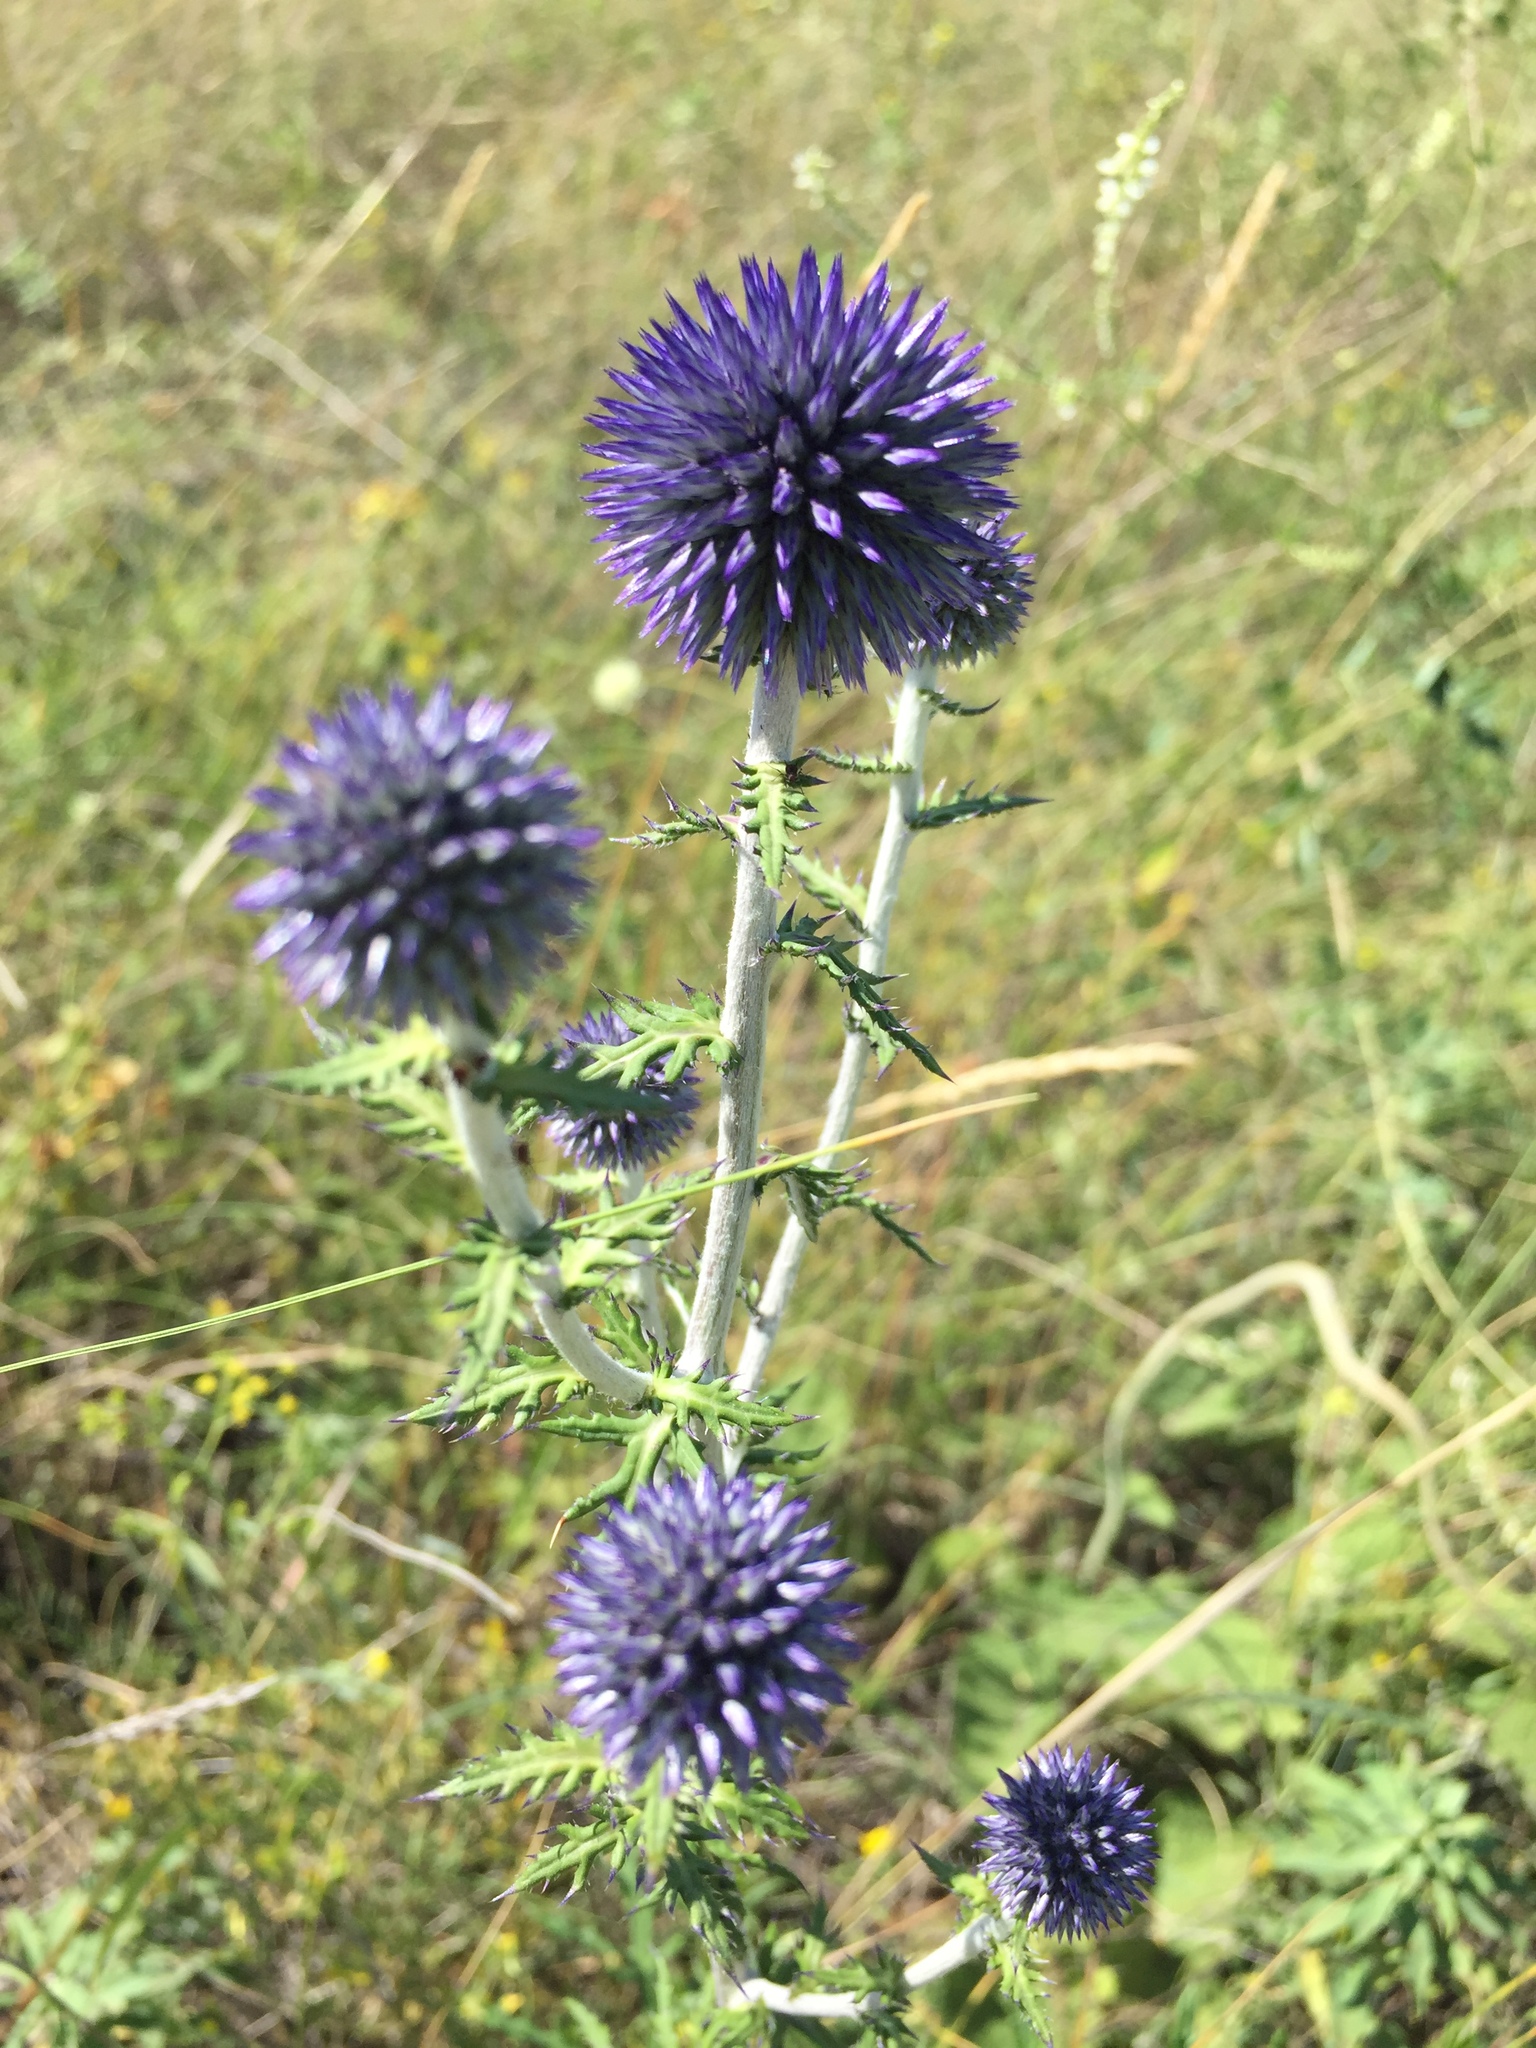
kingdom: Plantae
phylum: Tracheophyta
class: Magnoliopsida
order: Asterales
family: Asteraceae
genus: Echinops
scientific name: Echinops ritro
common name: Globe thistle
